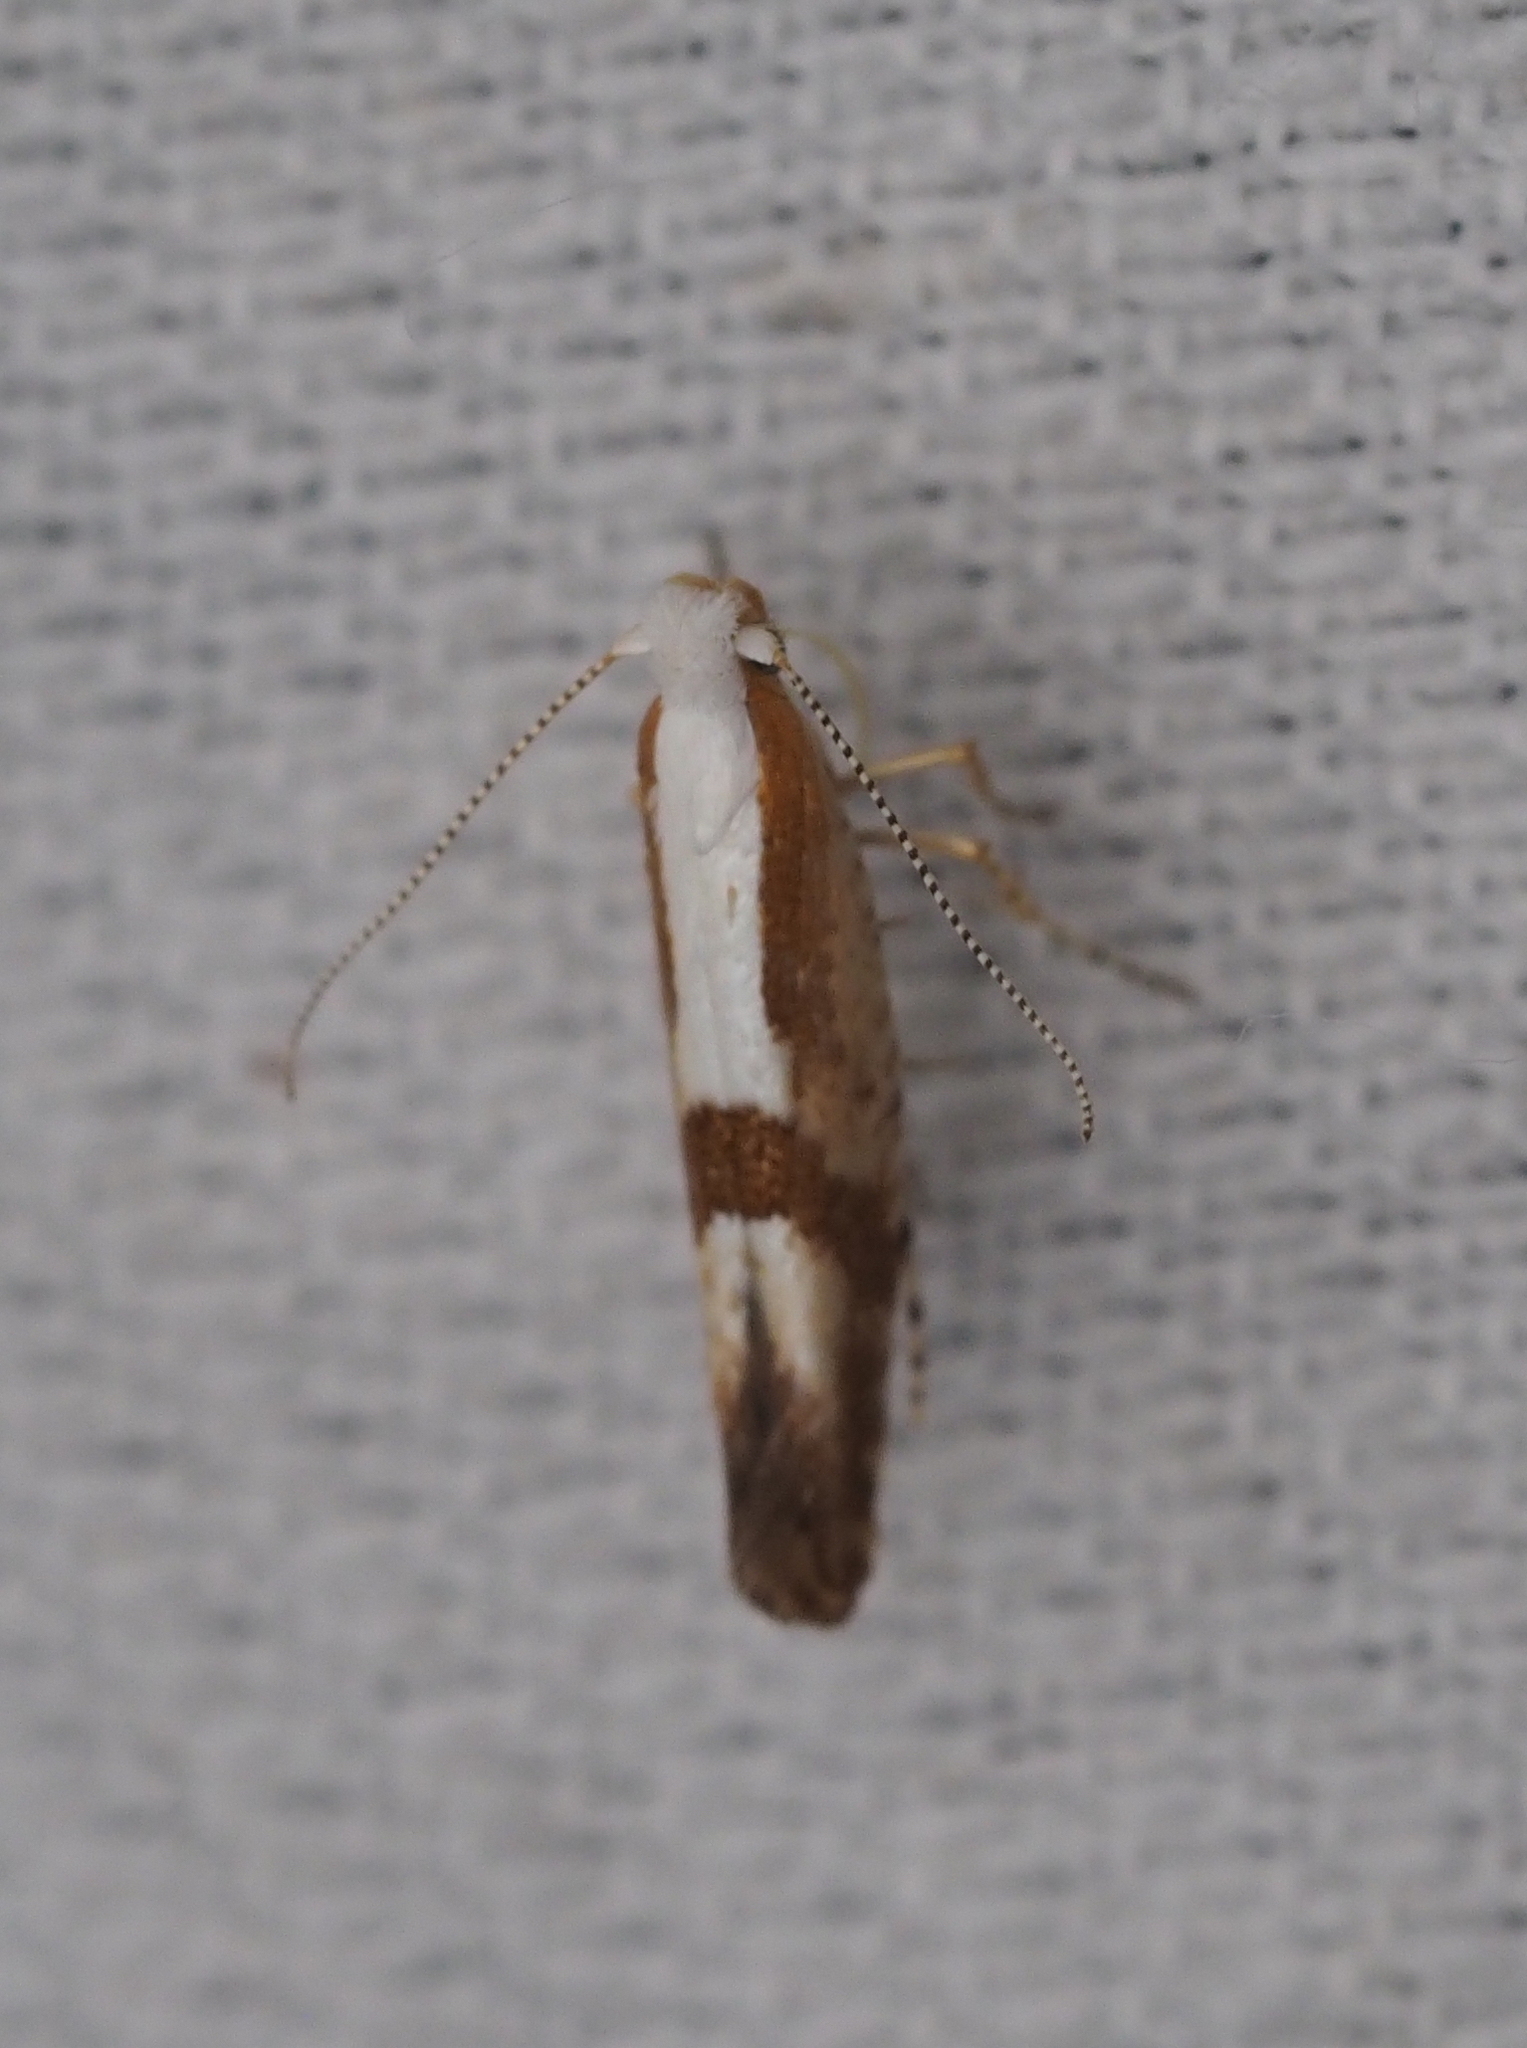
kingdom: Animalia
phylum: Arthropoda
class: Insecta
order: Lepidoptera
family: Argyresthiidae
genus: Argyresthia
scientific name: Argyresthia pruniella
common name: Cherry fruit moth
